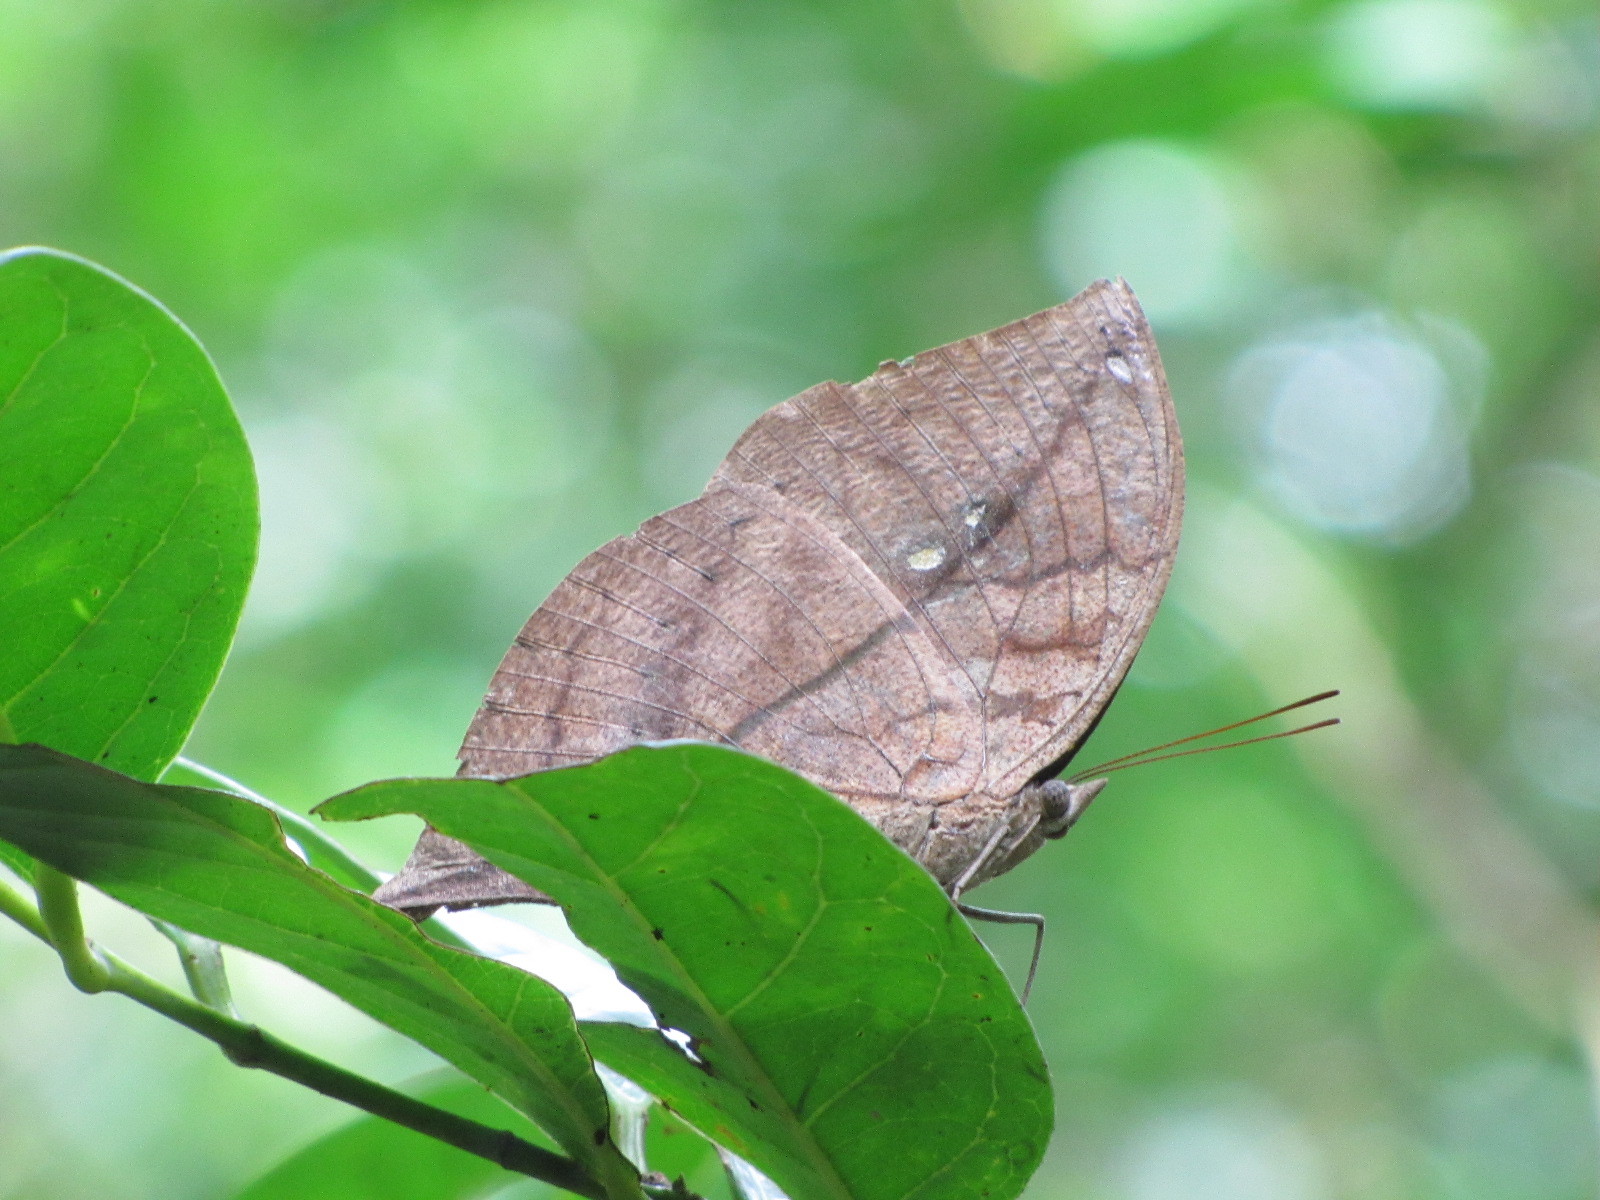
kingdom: Animalia
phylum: Arthropoda
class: Insecta
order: Lepidoptera
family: Nymphalidae
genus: Kallima
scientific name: Kallima horsfieldii
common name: Sahyadri blue oakleaf
